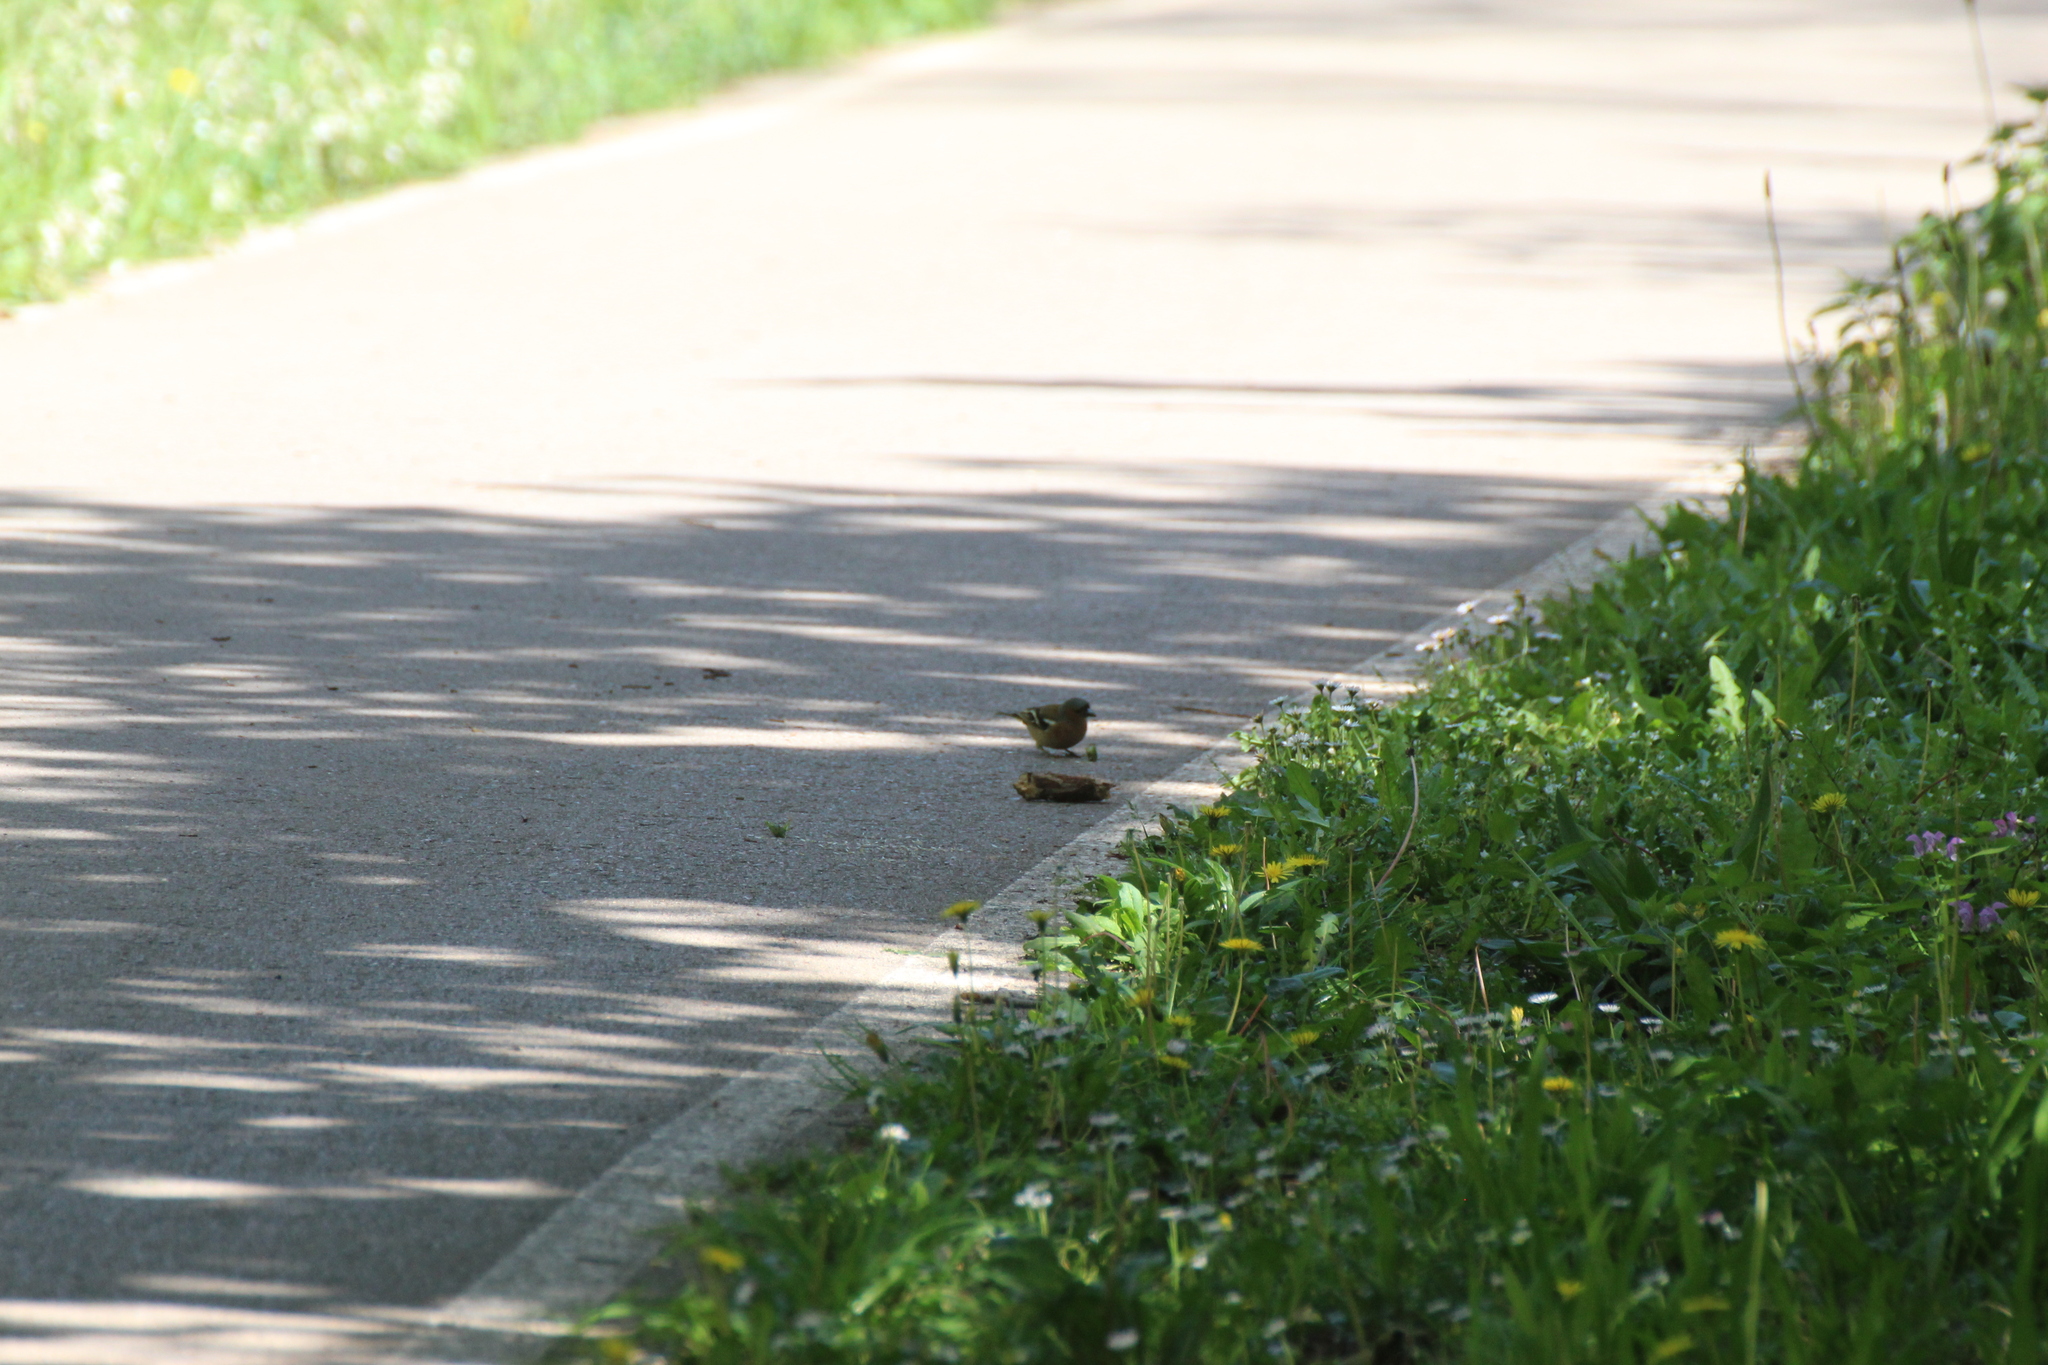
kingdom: Animalia
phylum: Chordata
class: Aves
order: Passeriformes
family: Fringillidae
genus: Fringilla
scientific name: Fringilla coelebs
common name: Common chaffinch
